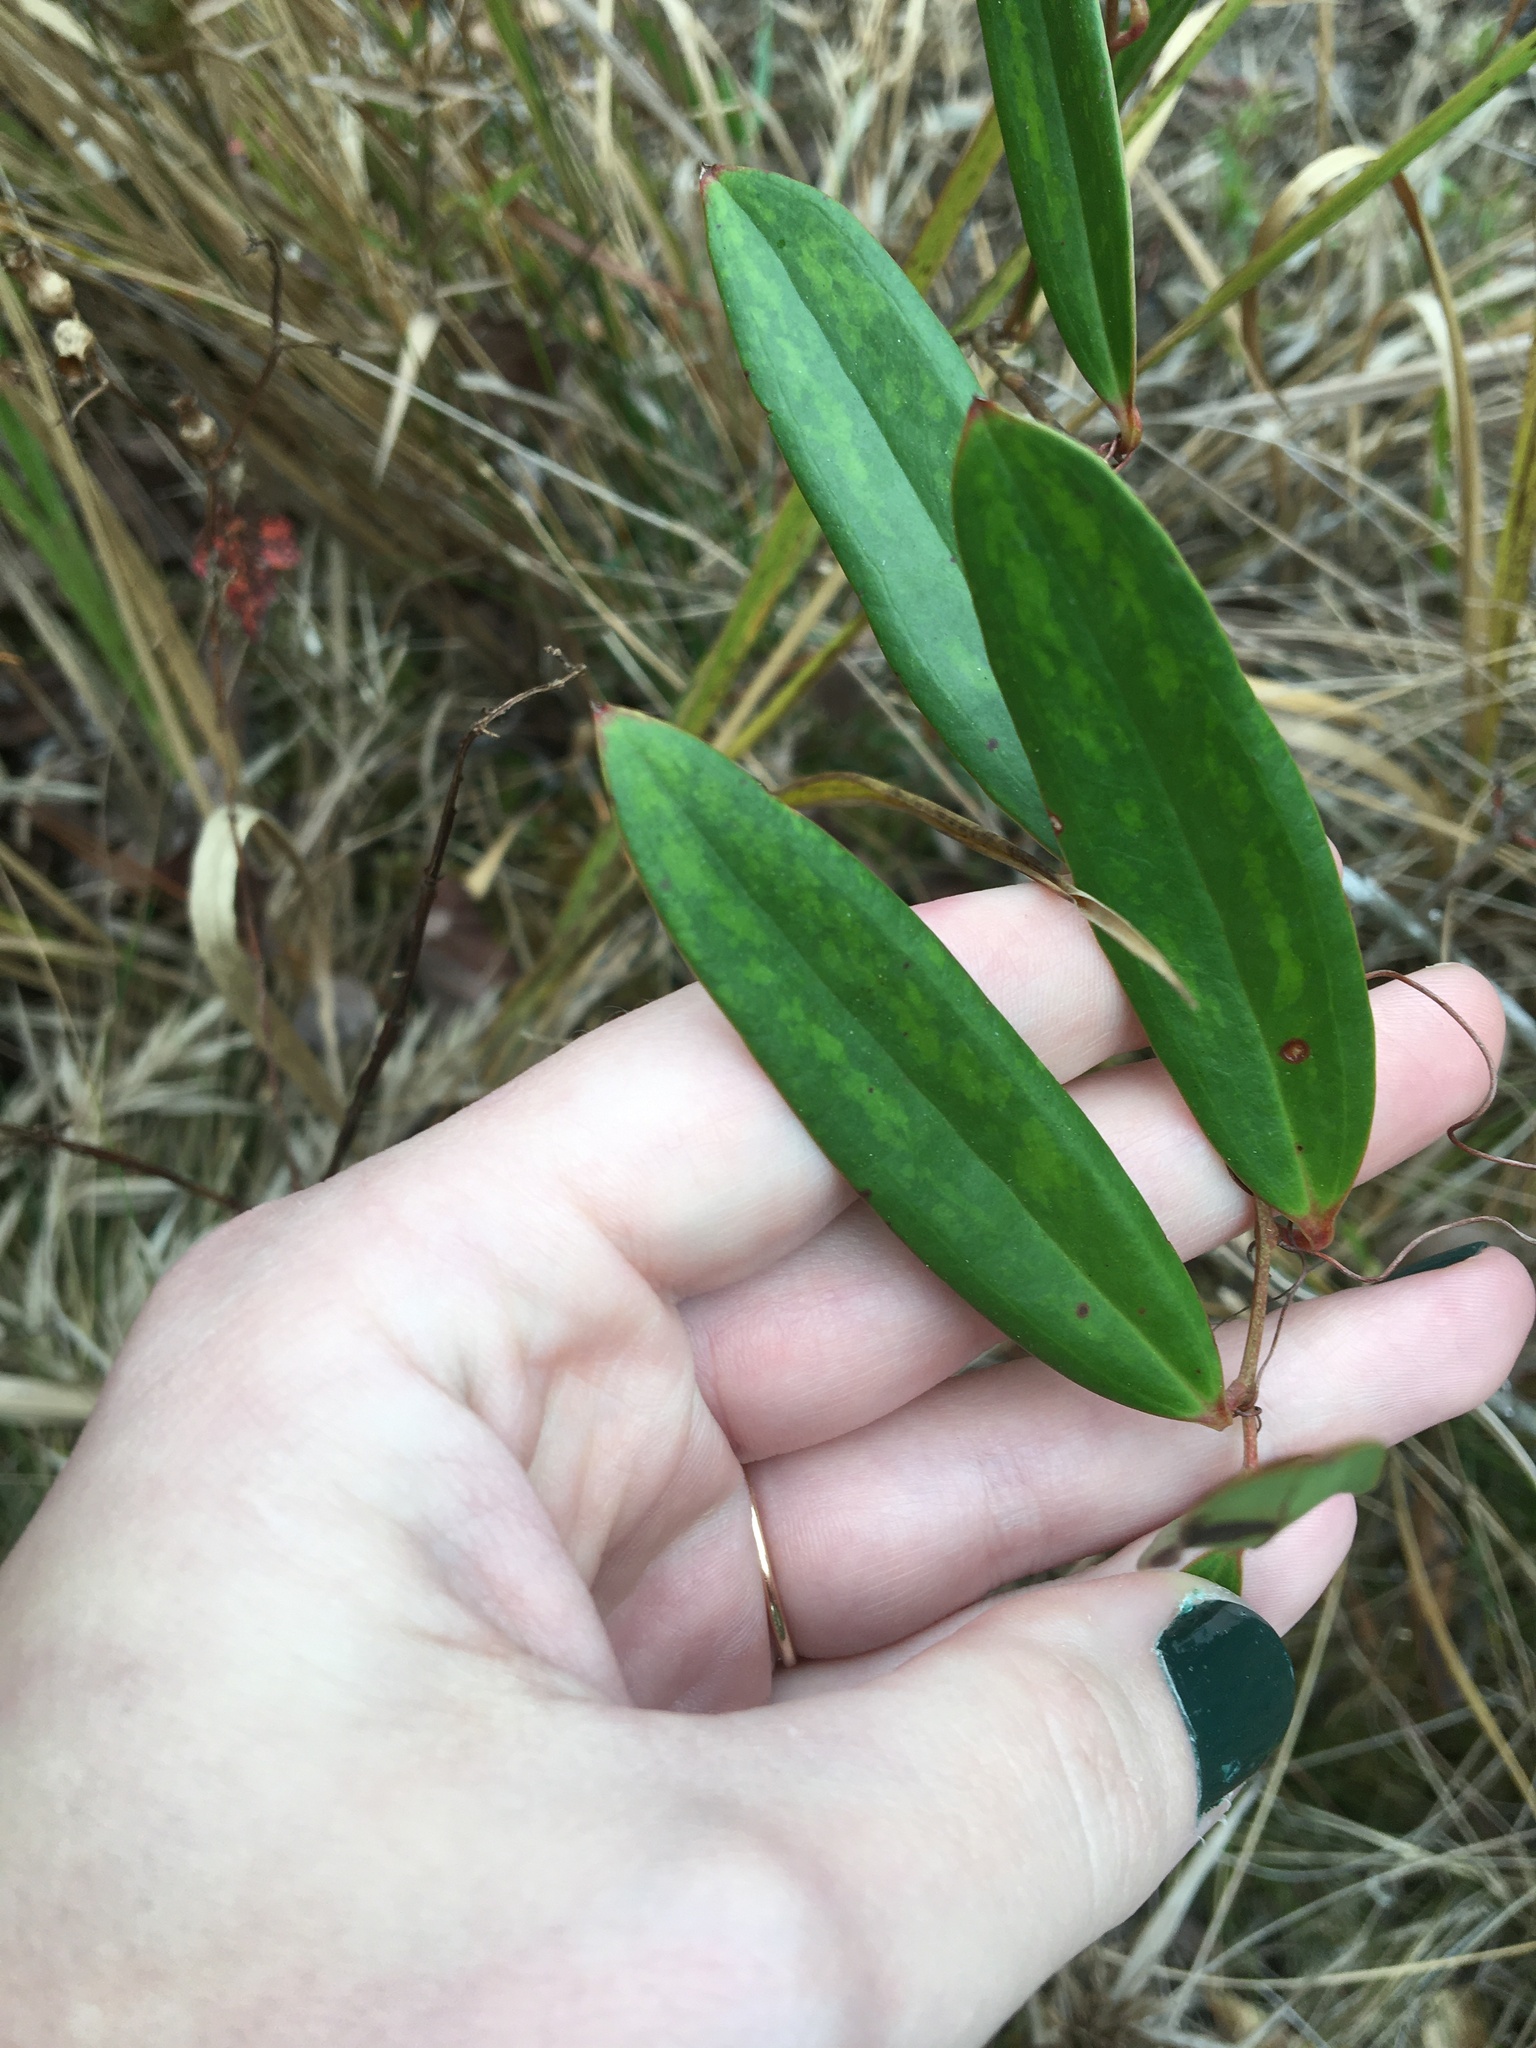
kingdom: Plantae
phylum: Tracheophyta
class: Liliopsida
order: Liliales
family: Smilacaceae
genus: Smilax
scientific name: Smilax laurifolia
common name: Bamboovine
